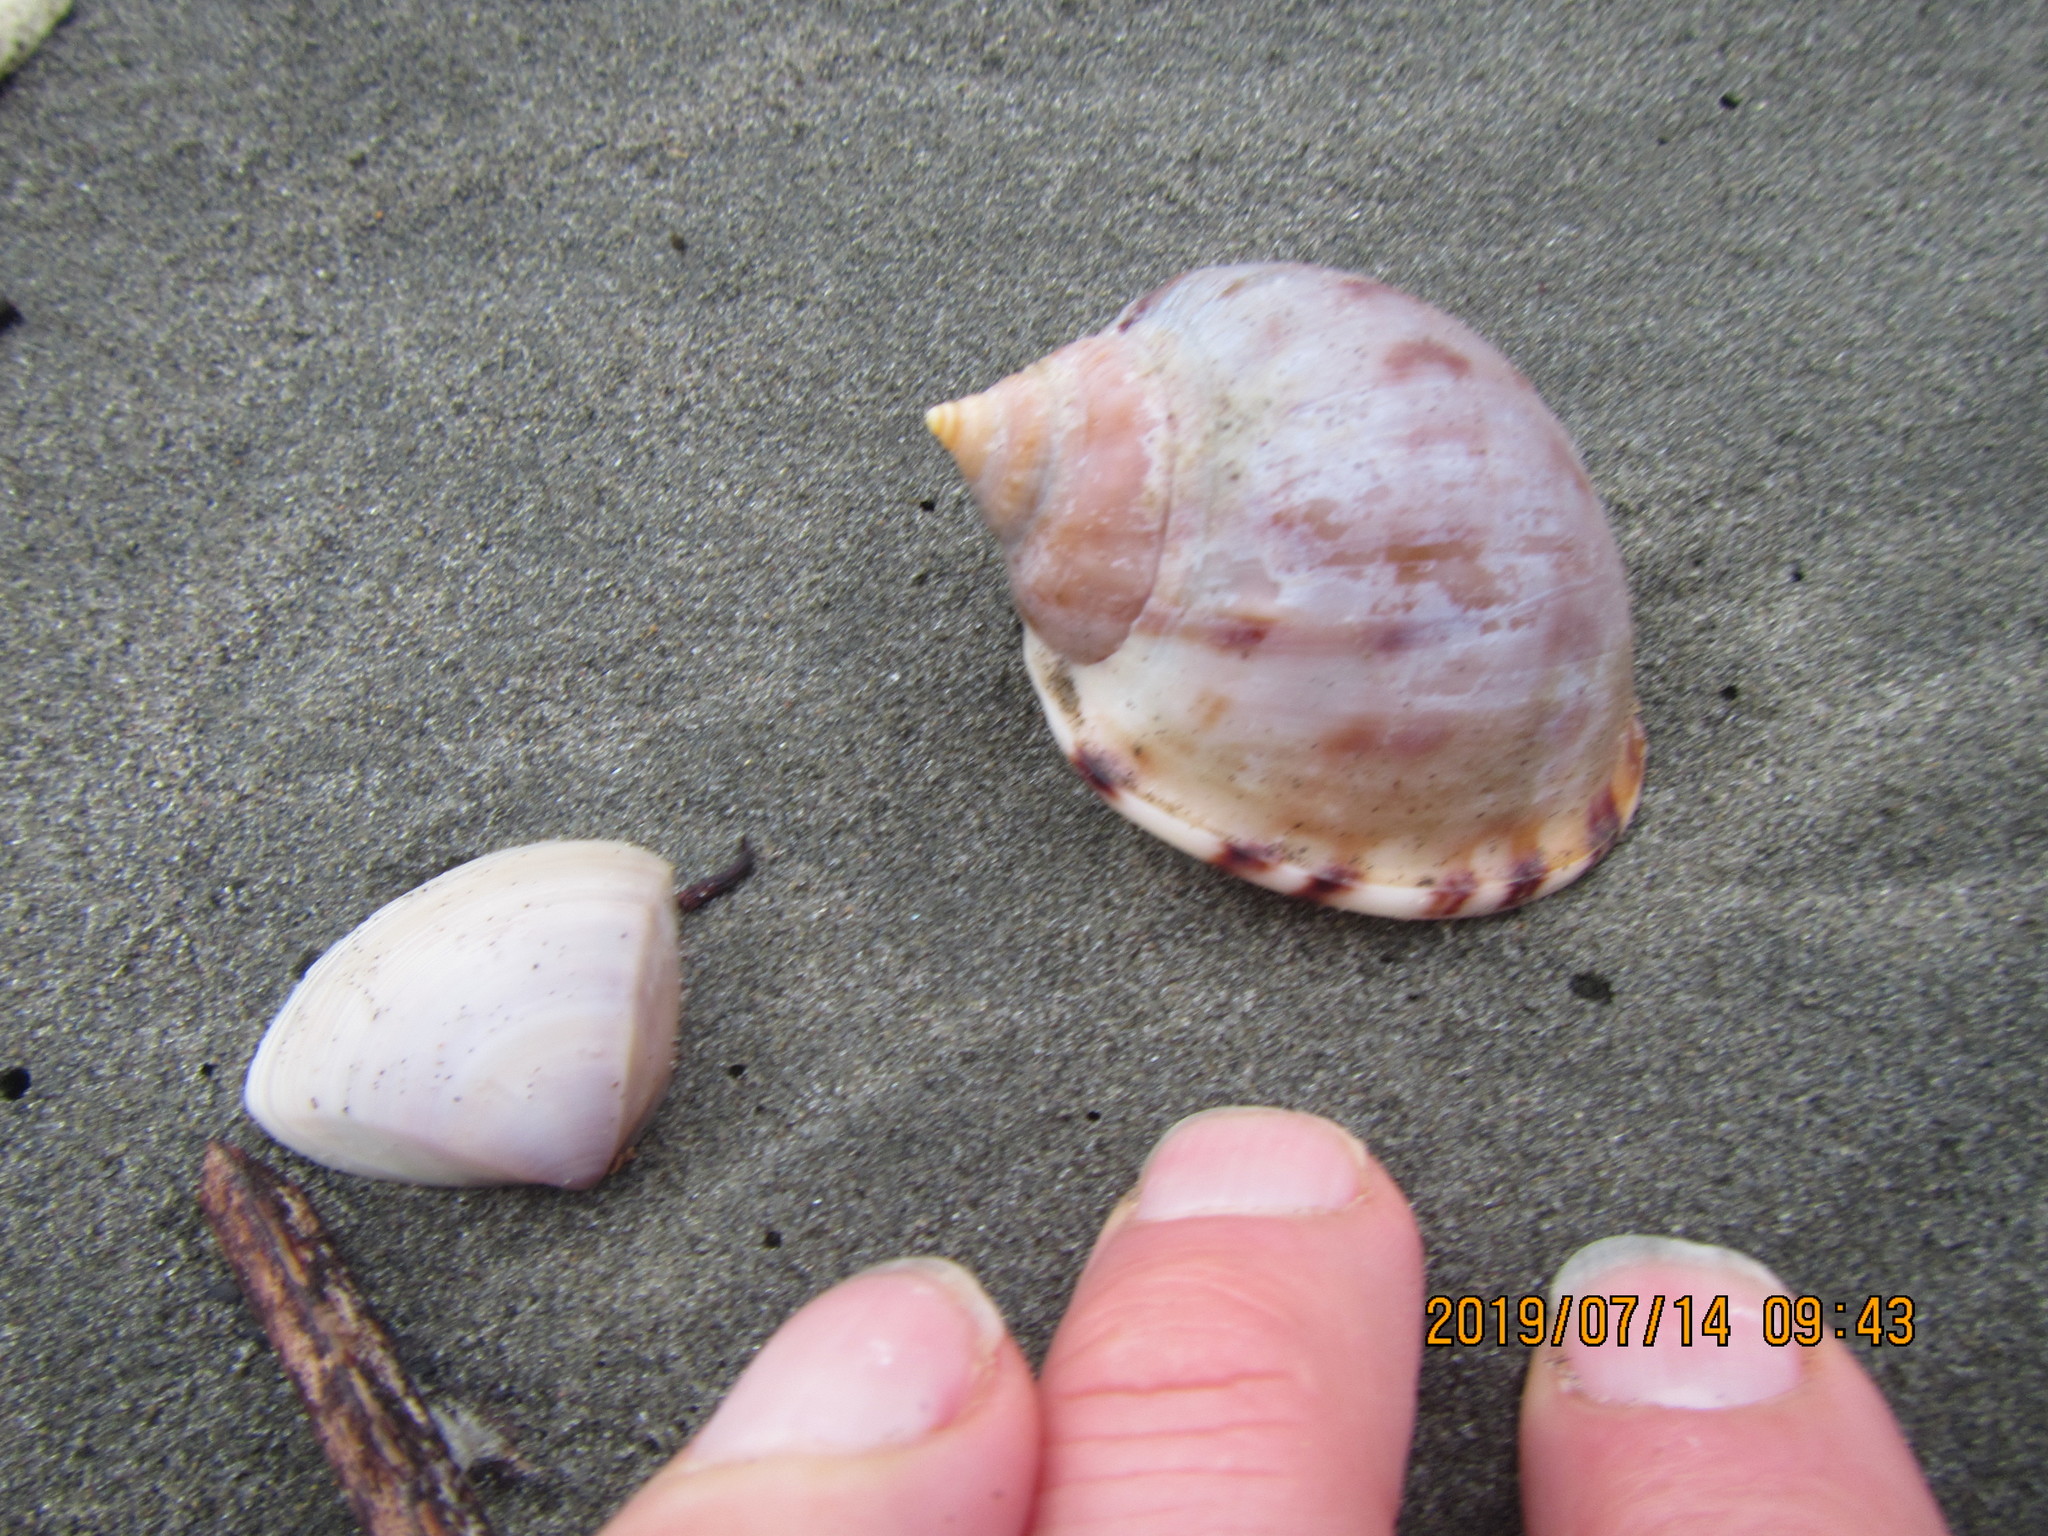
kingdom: Animalia
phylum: Mollusca
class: Gastropoda
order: Littorinimorpha
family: Cassidae
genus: Semicassis
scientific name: Semicassis pyrum
